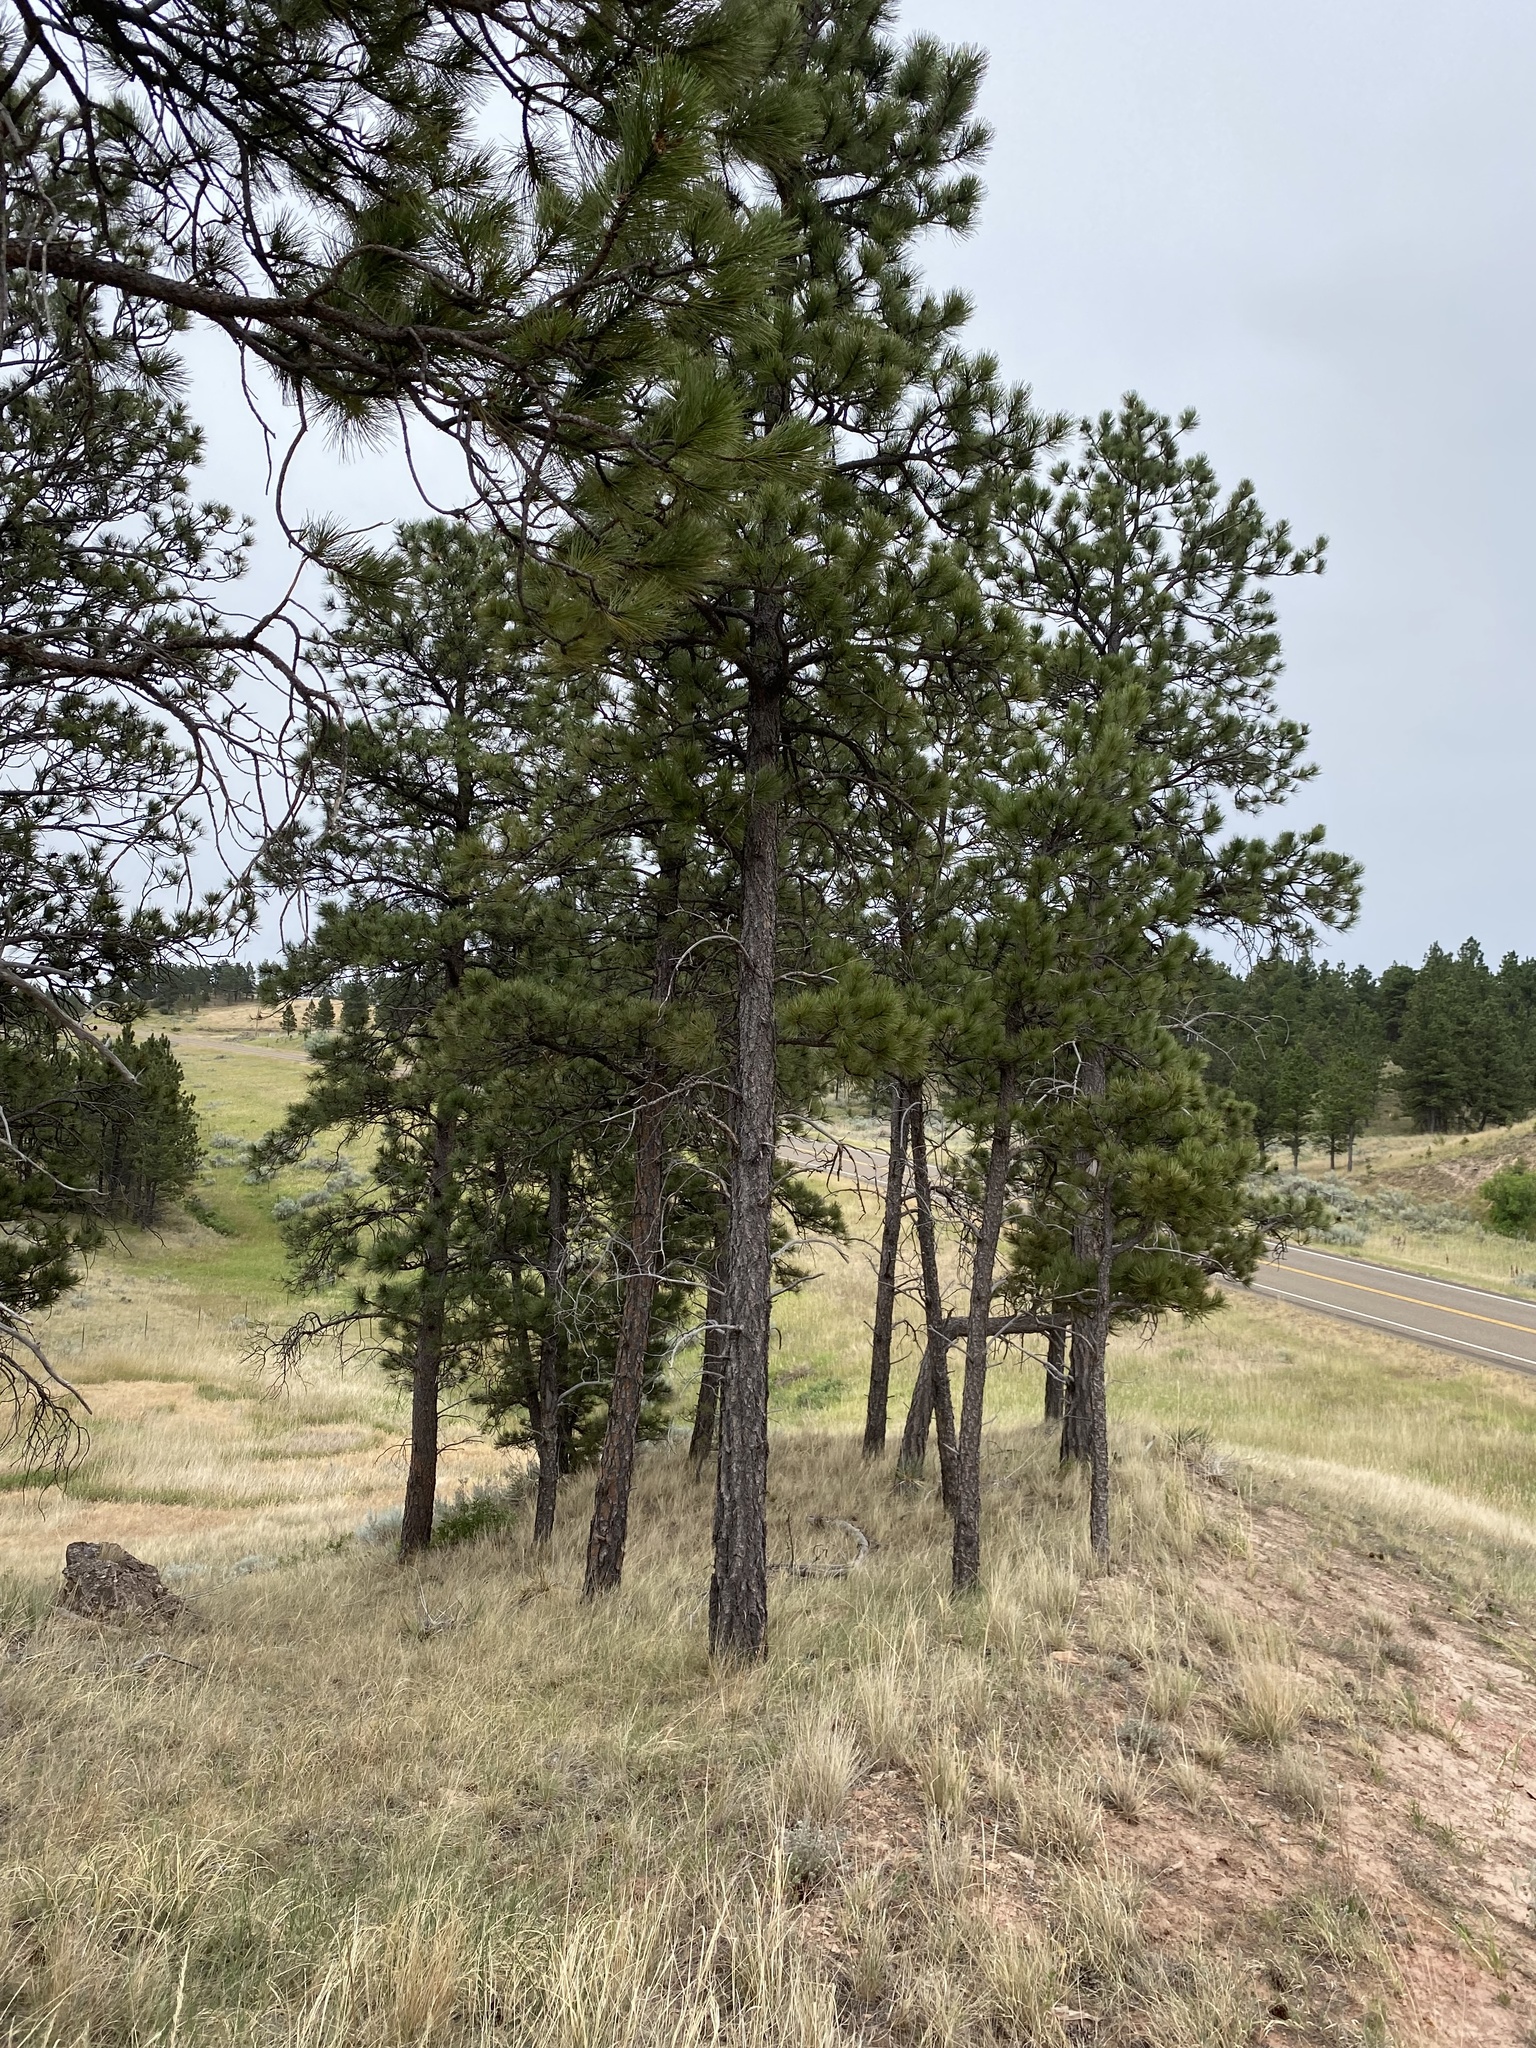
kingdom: Plantae
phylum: Tracheophyta
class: Pinopsida
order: Pinales
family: Pinaceae
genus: Pinus
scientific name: Pinus ponderosa
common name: Western yellow-pine
